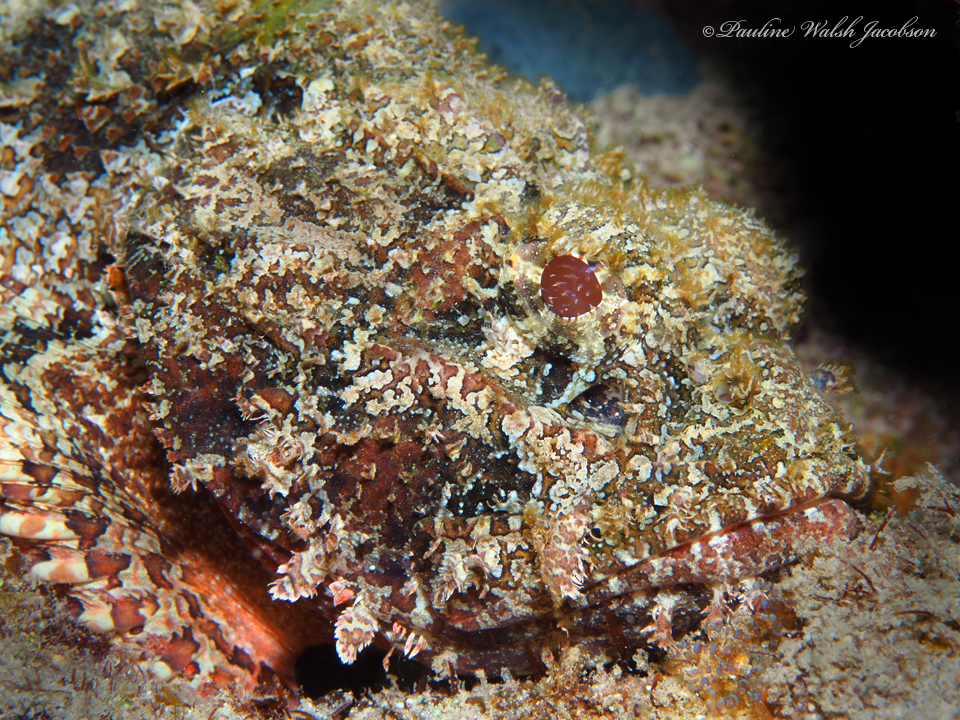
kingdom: Animalia
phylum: Chordata
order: Scorpaeniformes
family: Scorpaenidae
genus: Scorpaena
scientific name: Scorpaena plumieri
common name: Spotted scorpionfish
